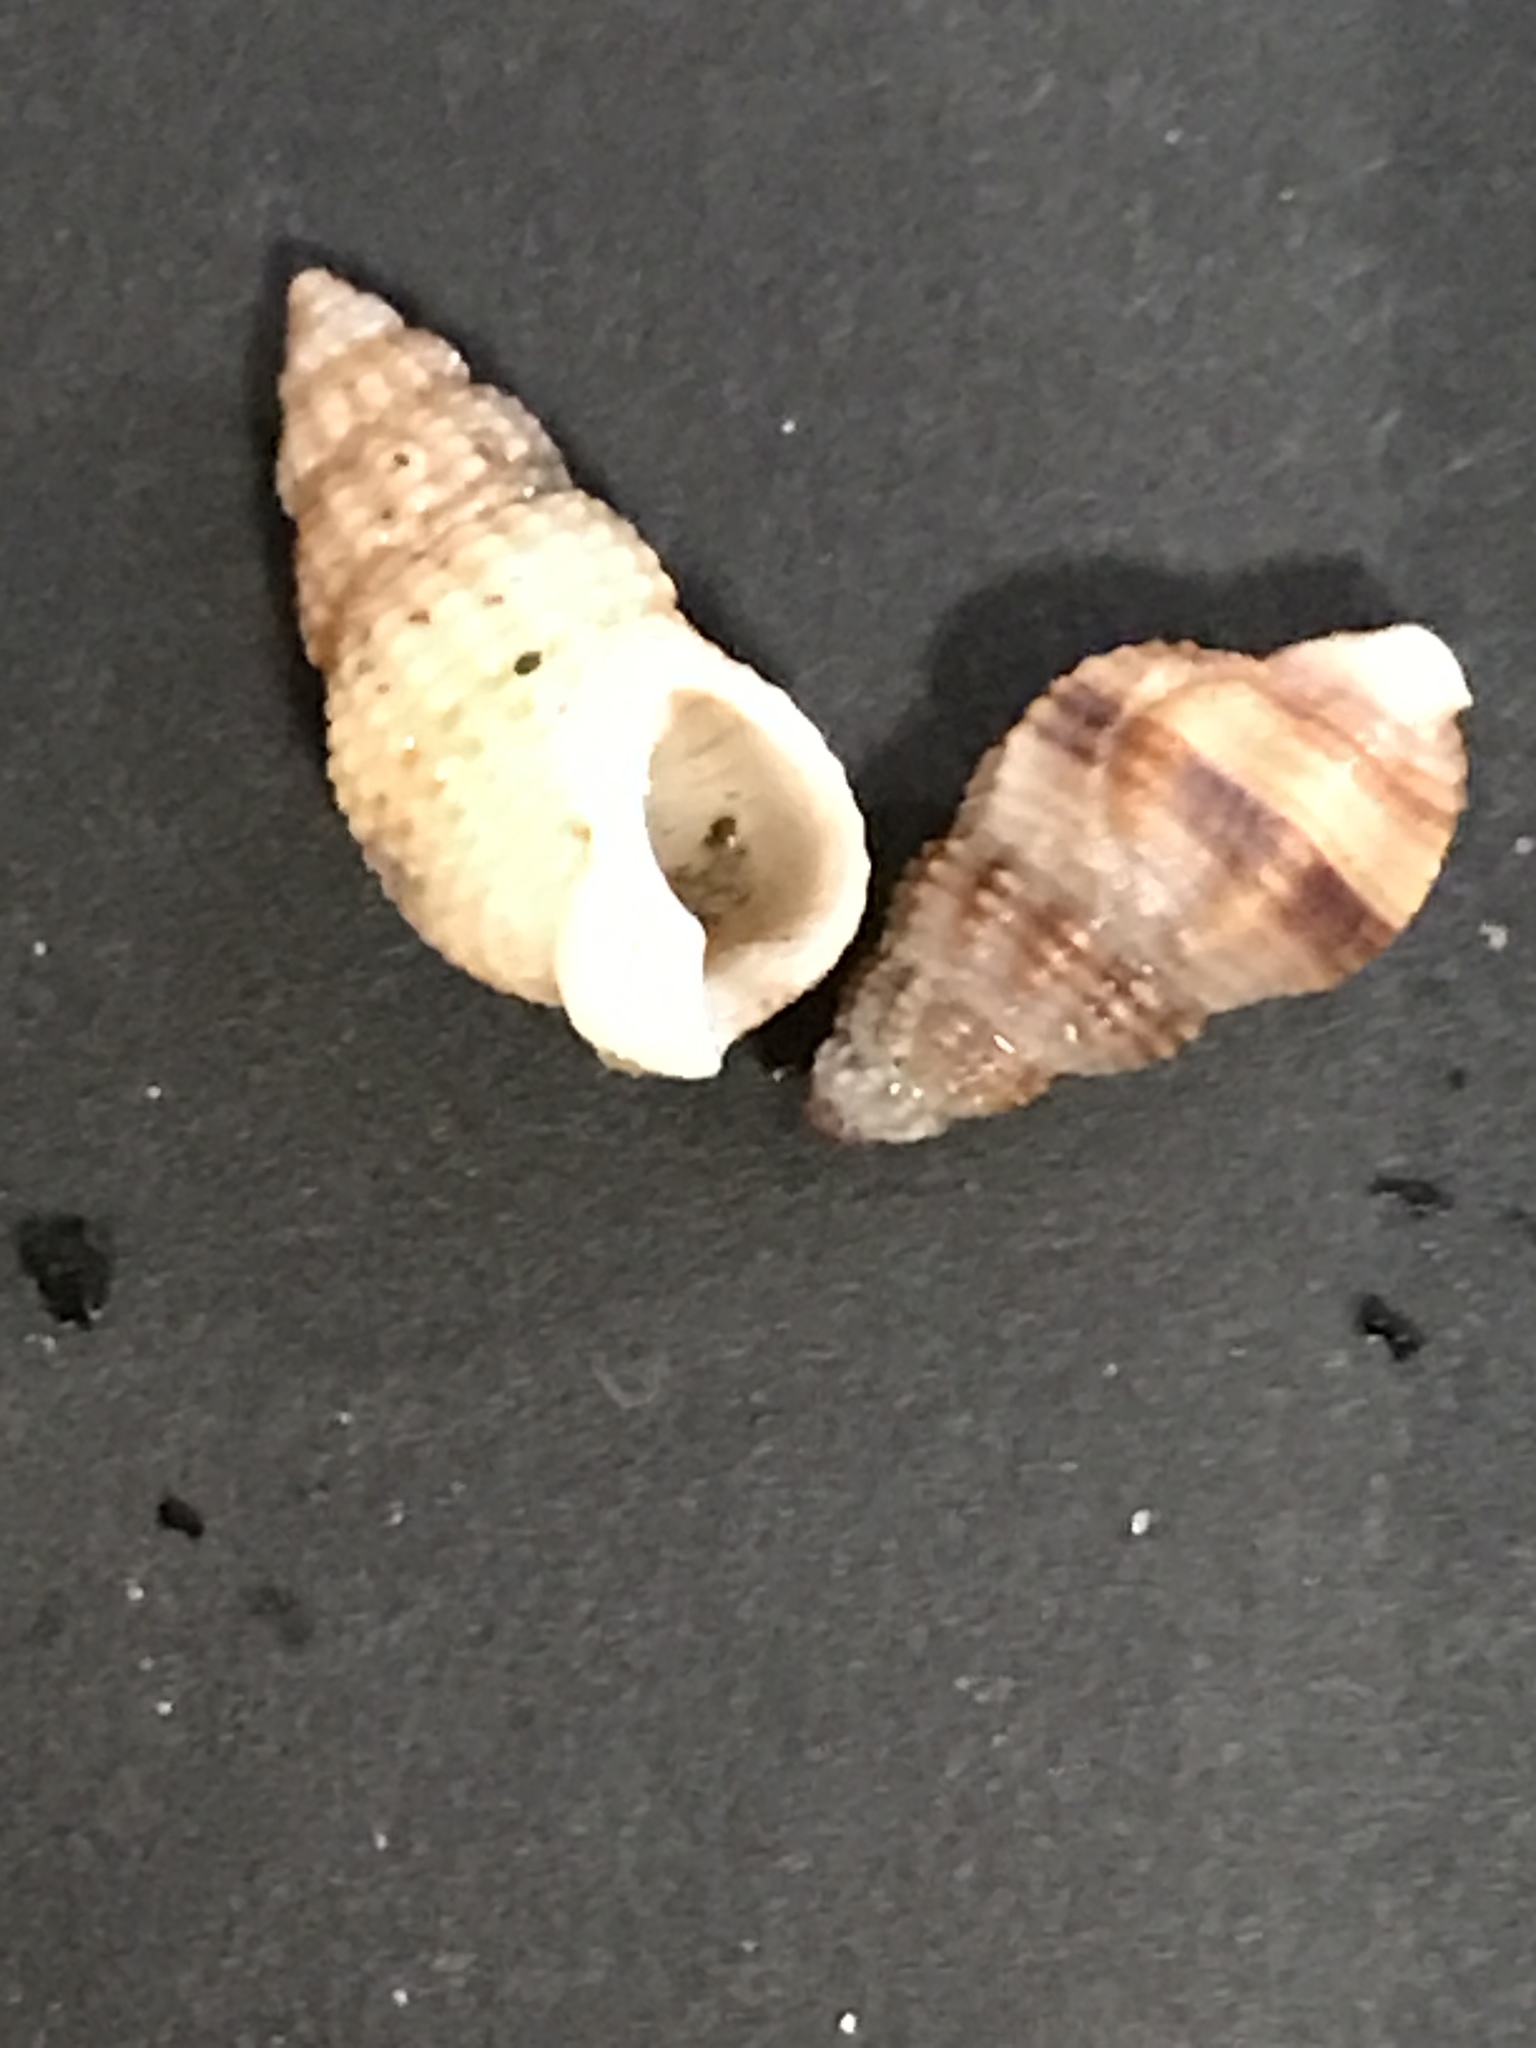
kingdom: Animalia
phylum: Mollusca
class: Gastropoda
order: Neogastropoda
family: Nassariidae
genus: Nassarius
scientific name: Nassarius mendicus
